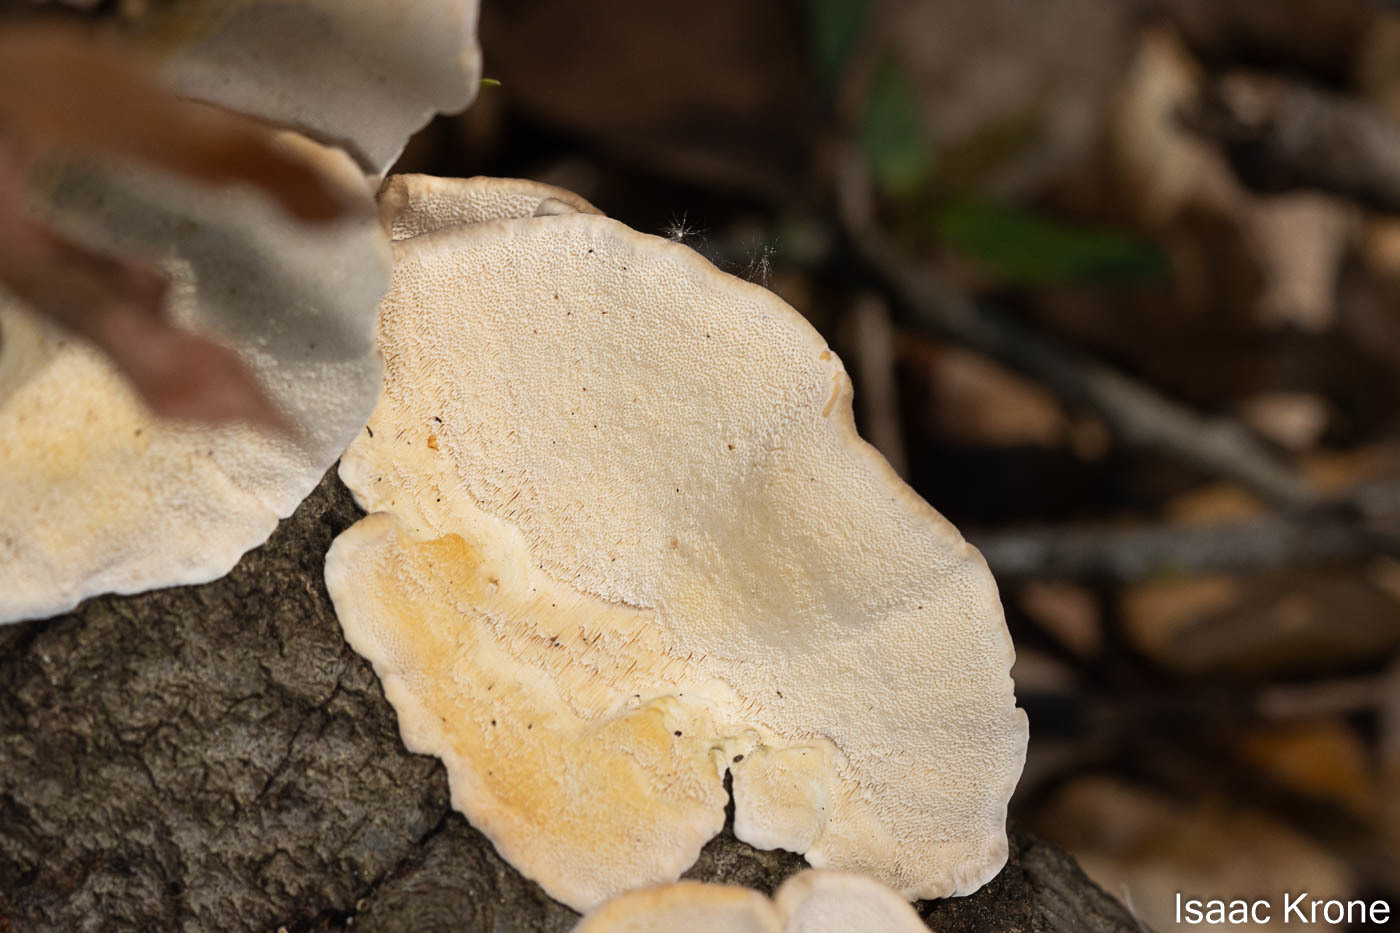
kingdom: Fungi
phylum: Basidiomycota
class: Agaricomycetes
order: Polyporales
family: Polyporaceae
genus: Trametes
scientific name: Trametes versicolor
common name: Turkeytail
